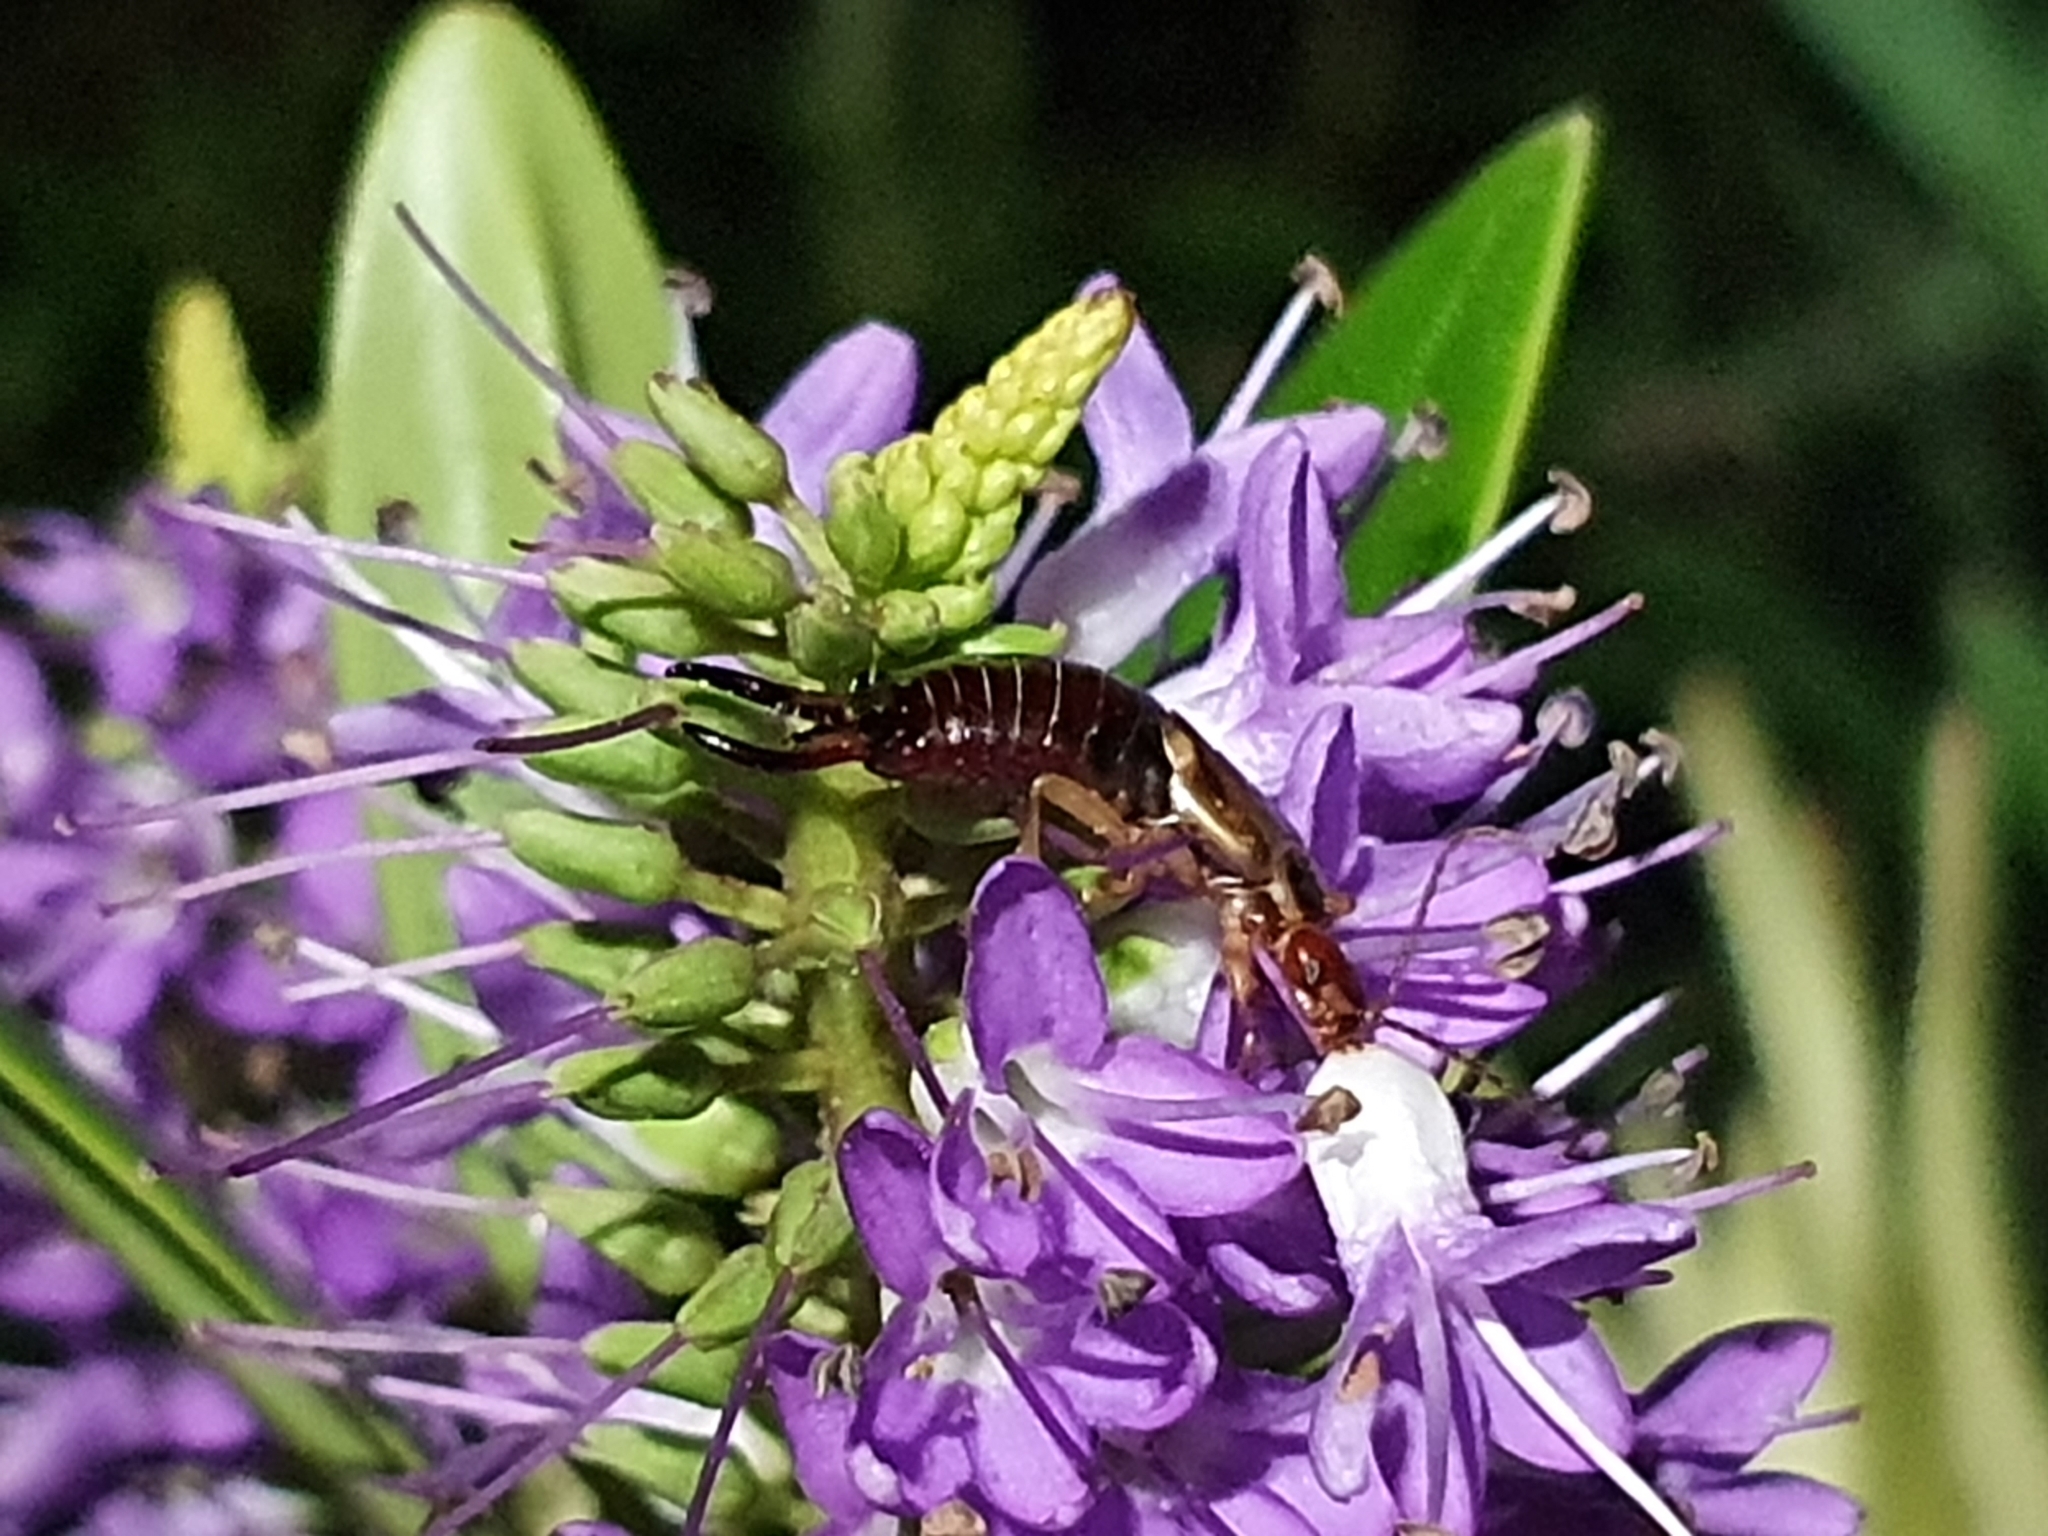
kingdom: Animalia
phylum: Arthropoda
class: Insecta
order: Dermaptera
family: Forficulidae
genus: Forficula
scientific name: Forficula
